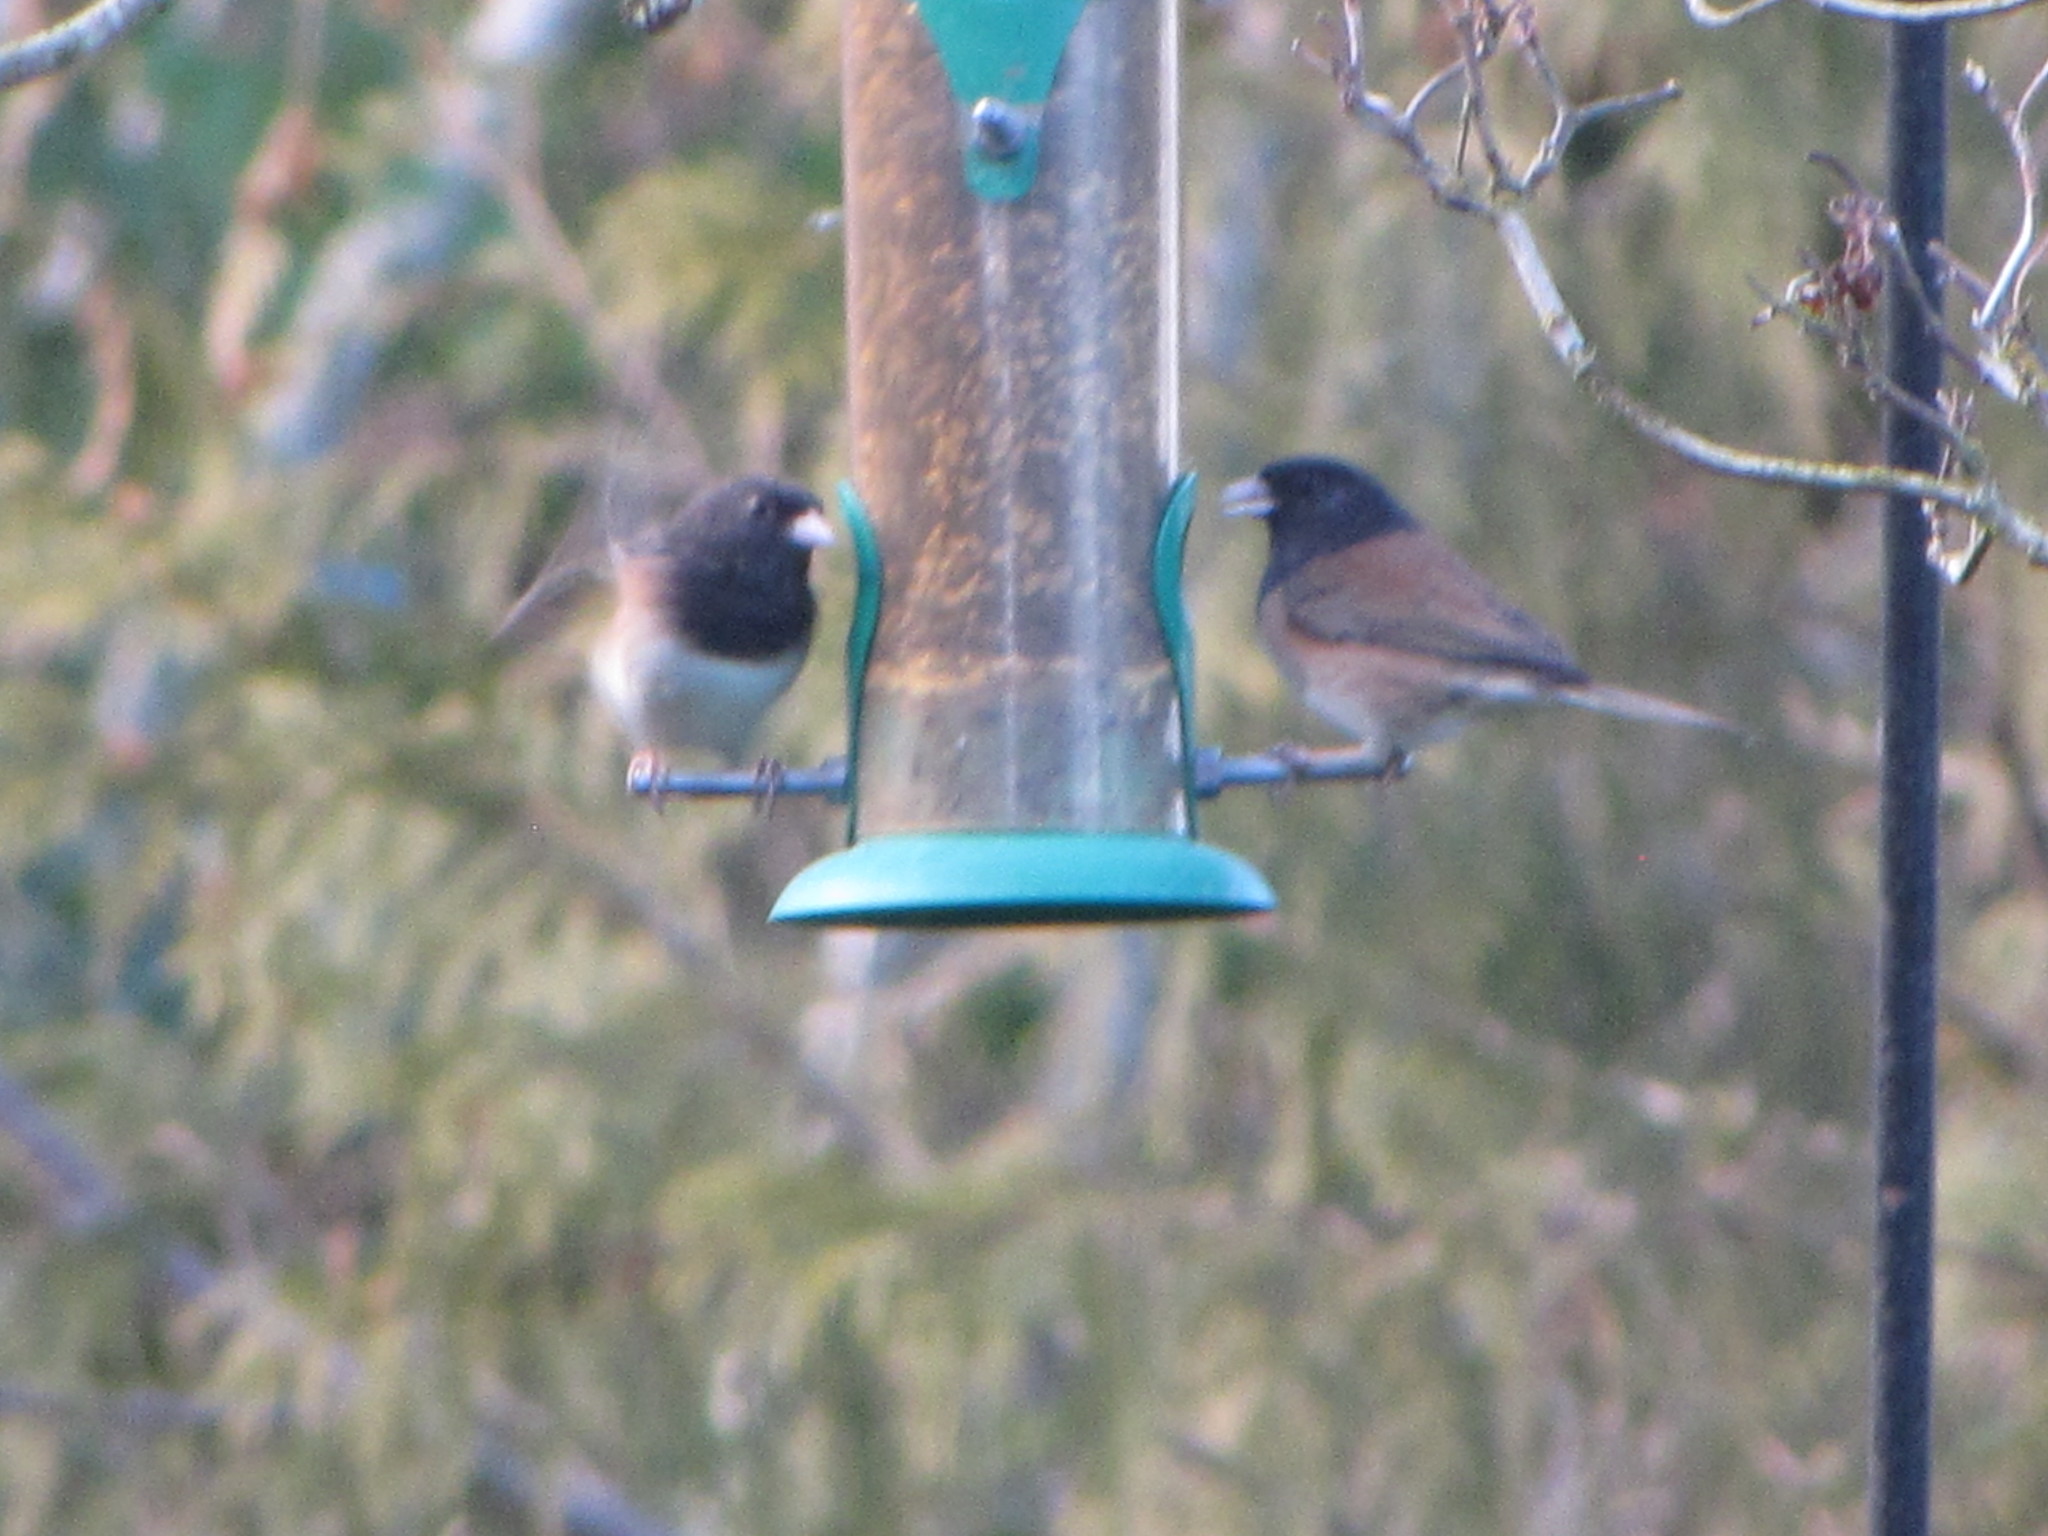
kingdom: Animalia
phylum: Chordata
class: Aves
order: Passeriformes
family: Passerellidae
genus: Junco
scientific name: Junco hyemalis
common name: Dark-eyed junco
